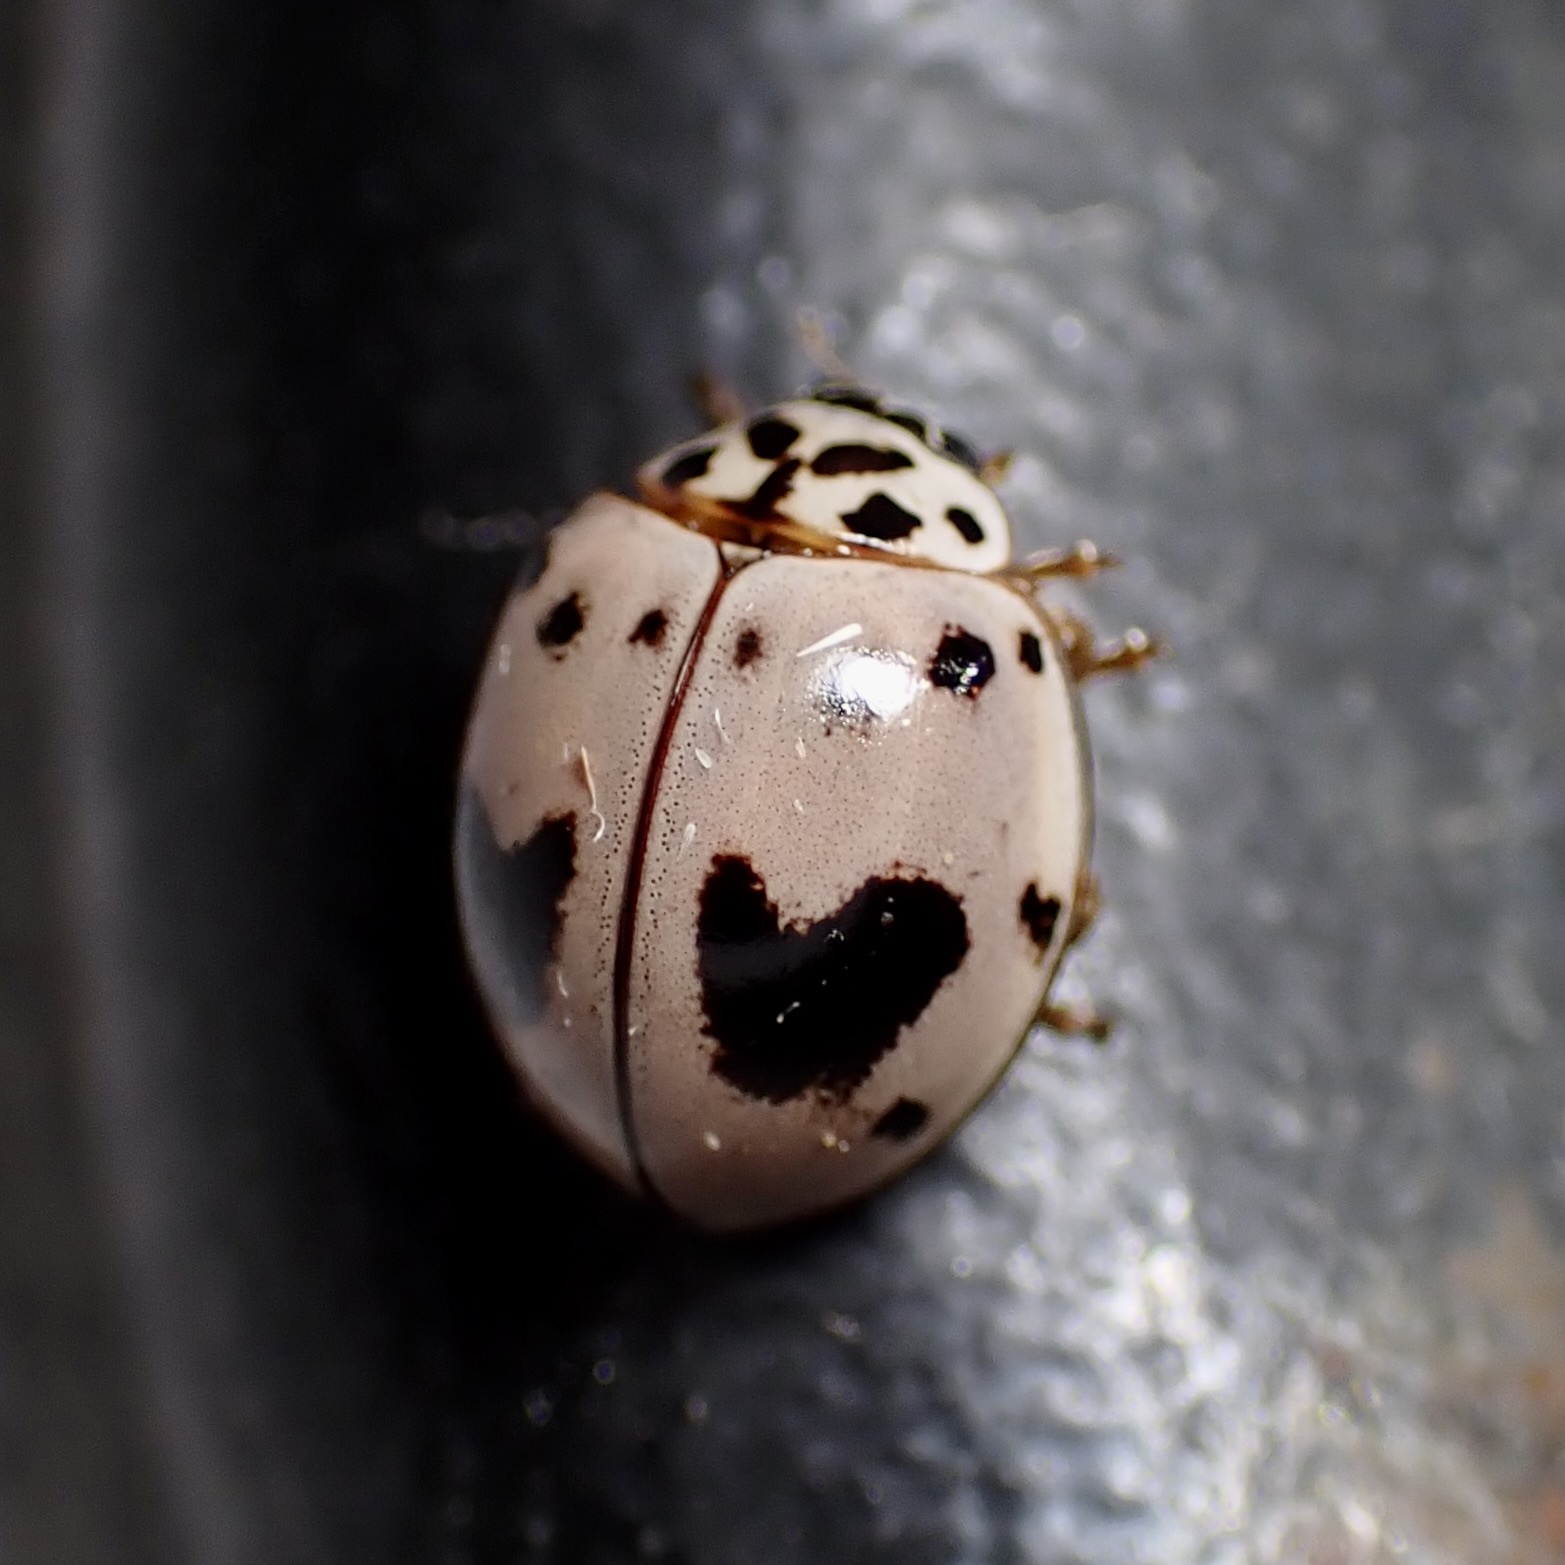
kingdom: Animalia
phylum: Arthropoda
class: Insecta
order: Coleoptera
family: Coccinellidae
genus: Olla
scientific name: Olla v-nigrum
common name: Ashy gray lady beetle
